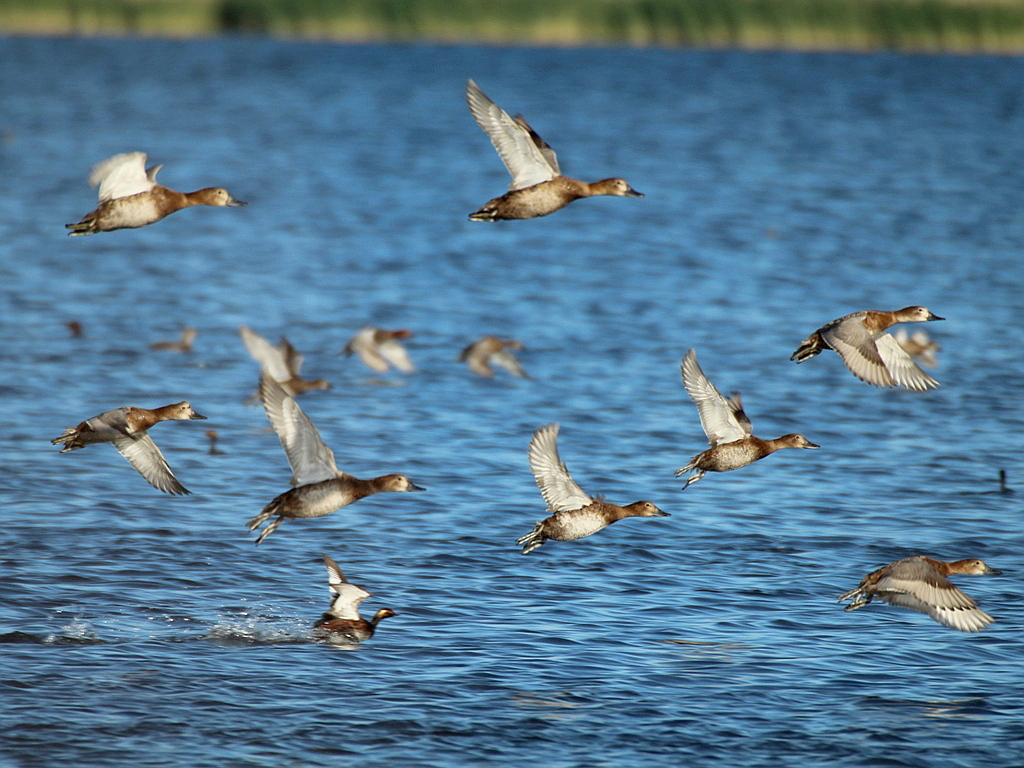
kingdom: Animalia
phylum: Chordata
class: Aves
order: Anseriformes
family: Anatidae
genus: Aythya
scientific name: Aythya ferina
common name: Common pochard
